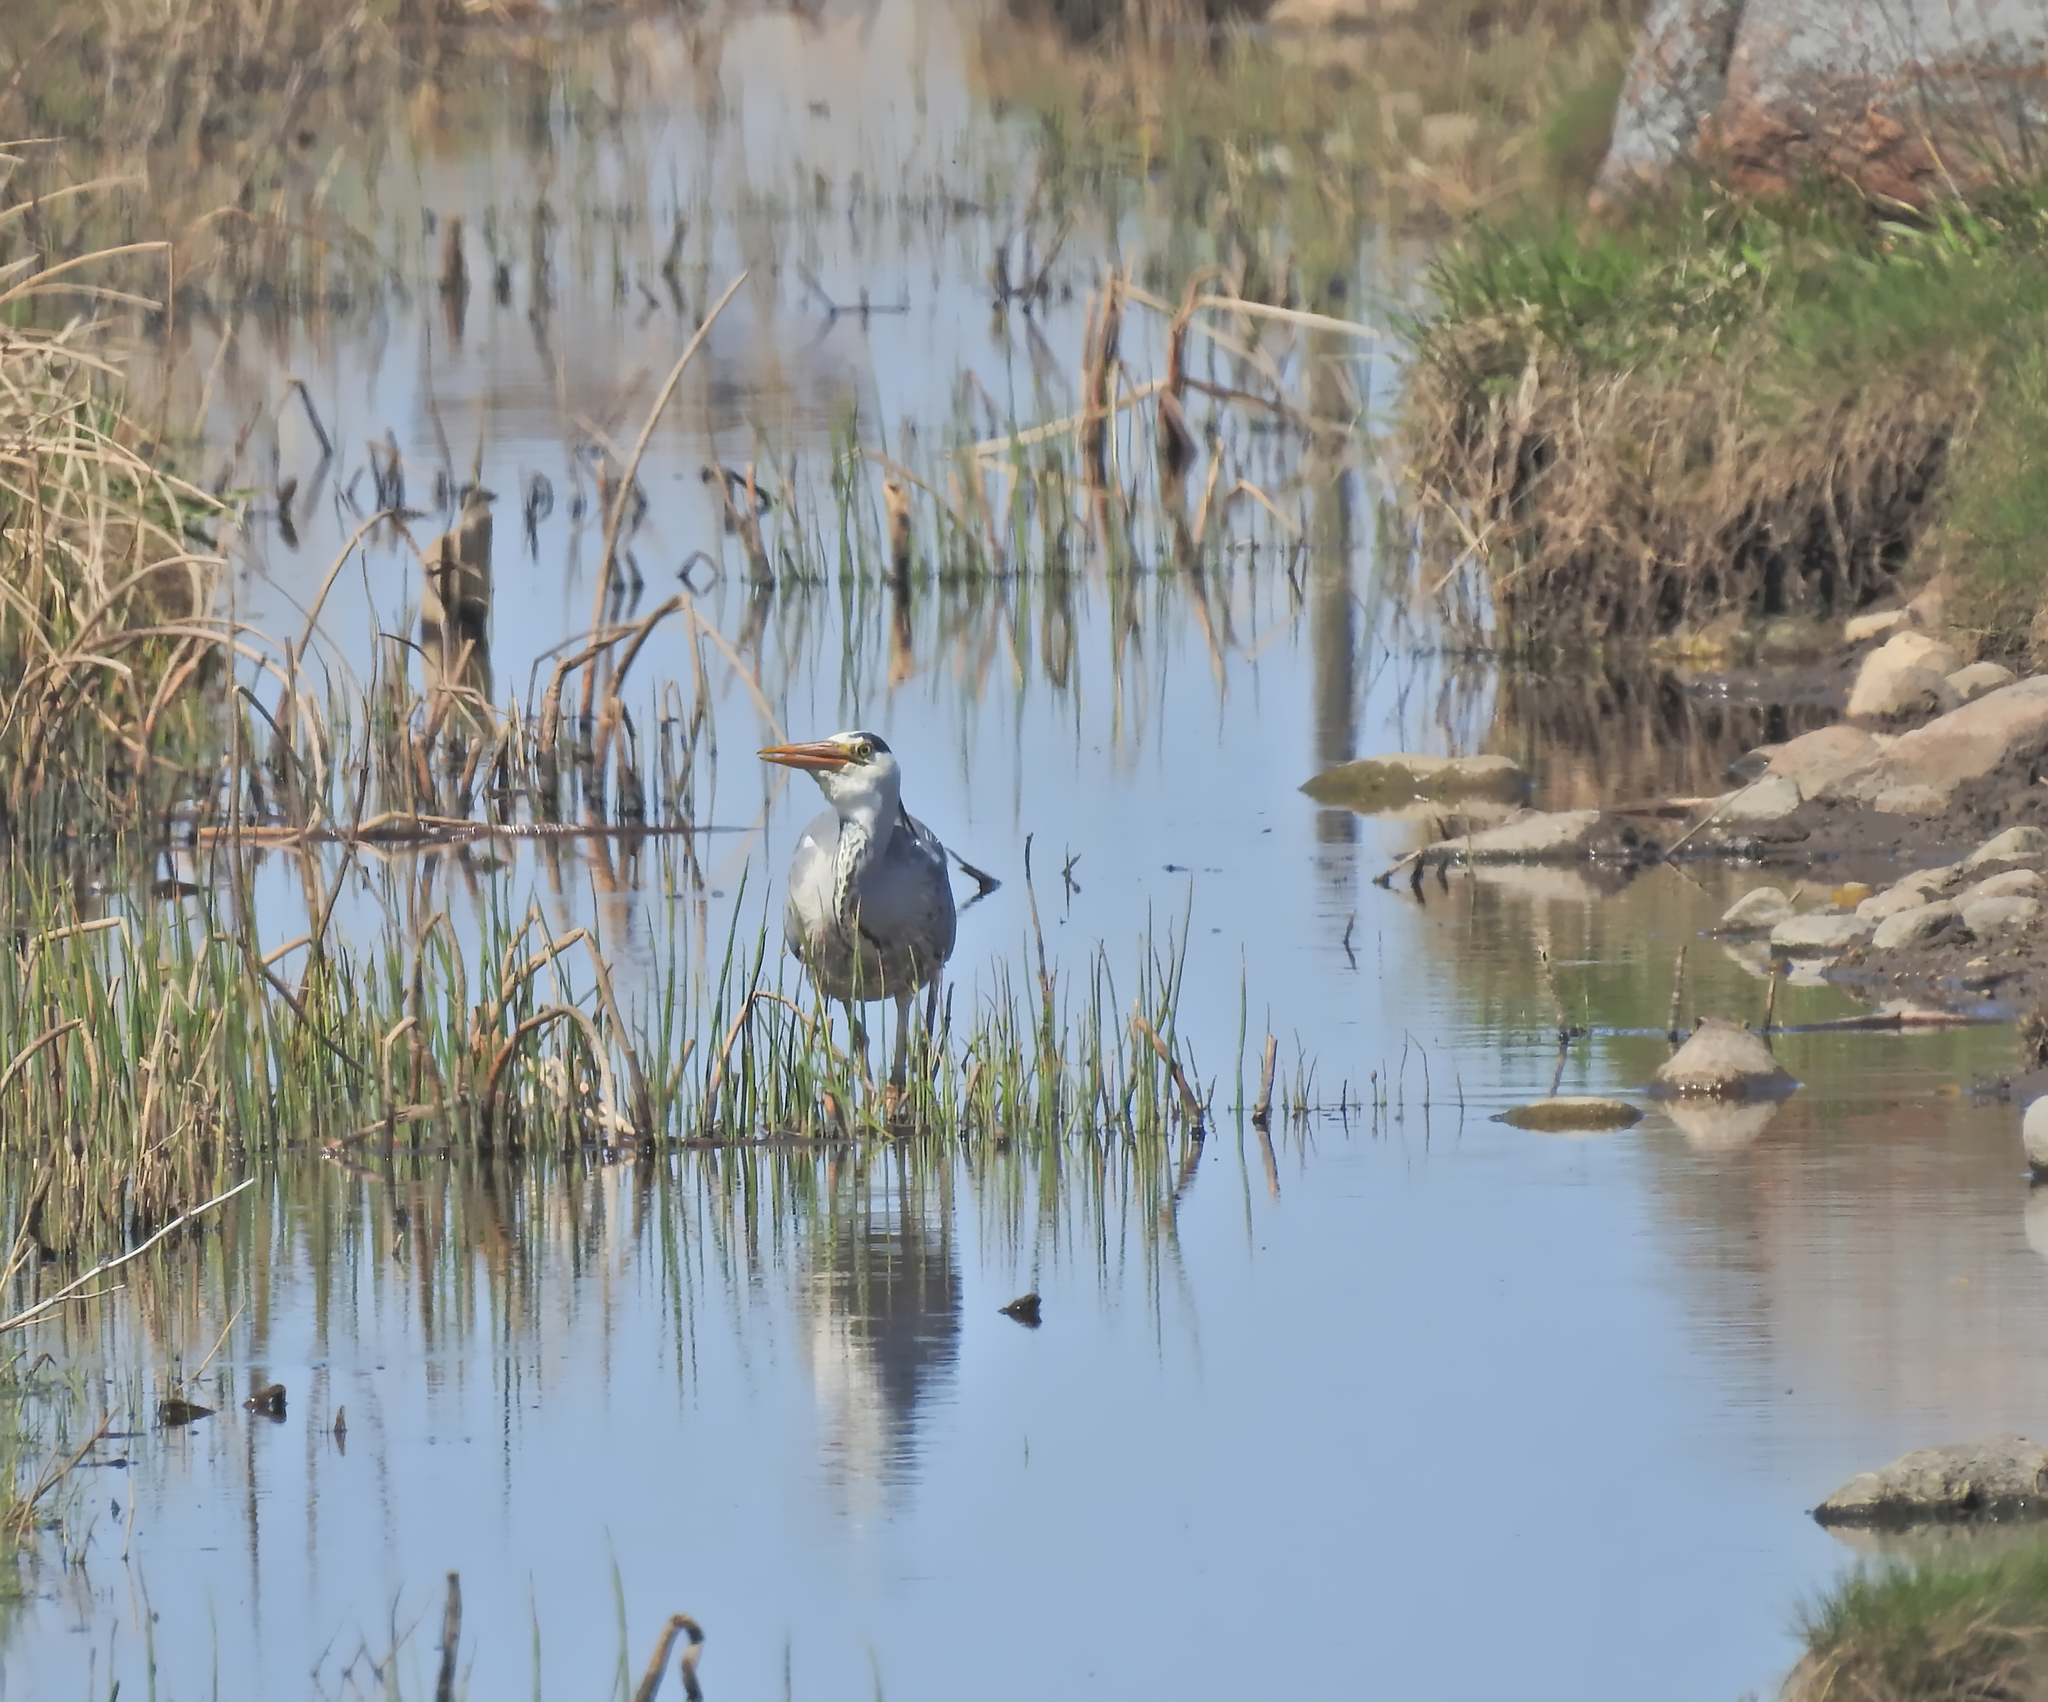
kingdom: Animalia
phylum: Chordata
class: Aves
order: Pelecaniformes
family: Ardeidae
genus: Ardea
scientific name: Ardea cinerea
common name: Grey heron
